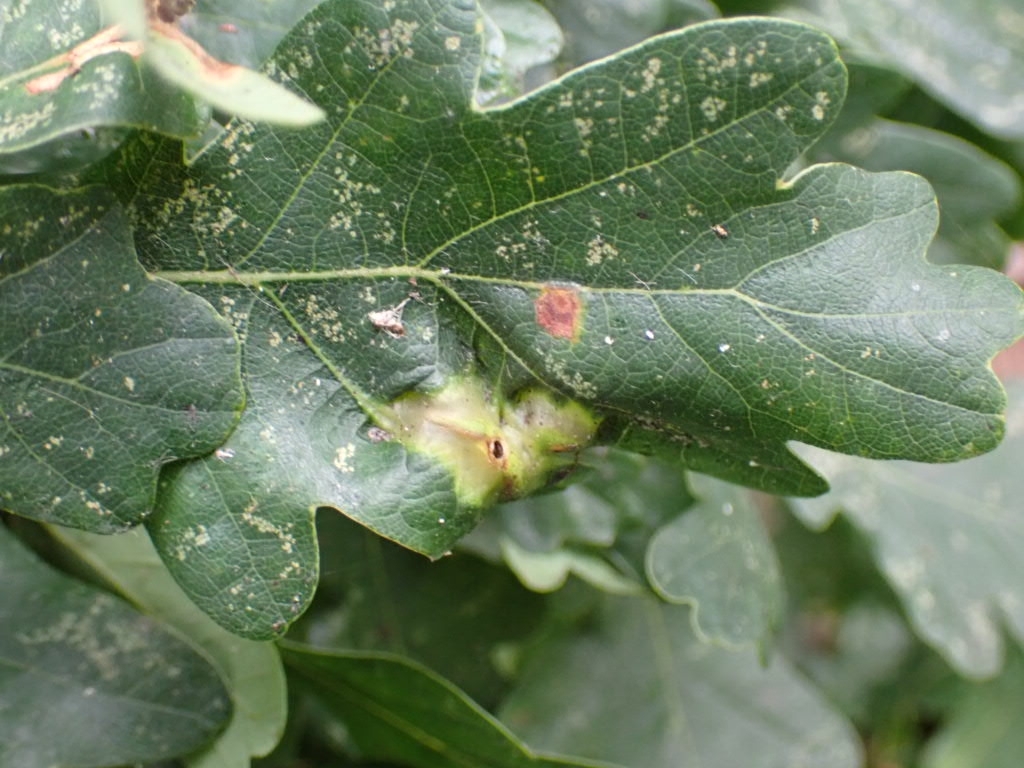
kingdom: Animalia
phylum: Arthropoda
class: Insecta
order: Hymenoptera
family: Cynipidae
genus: Andricus
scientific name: Andricus curvator
